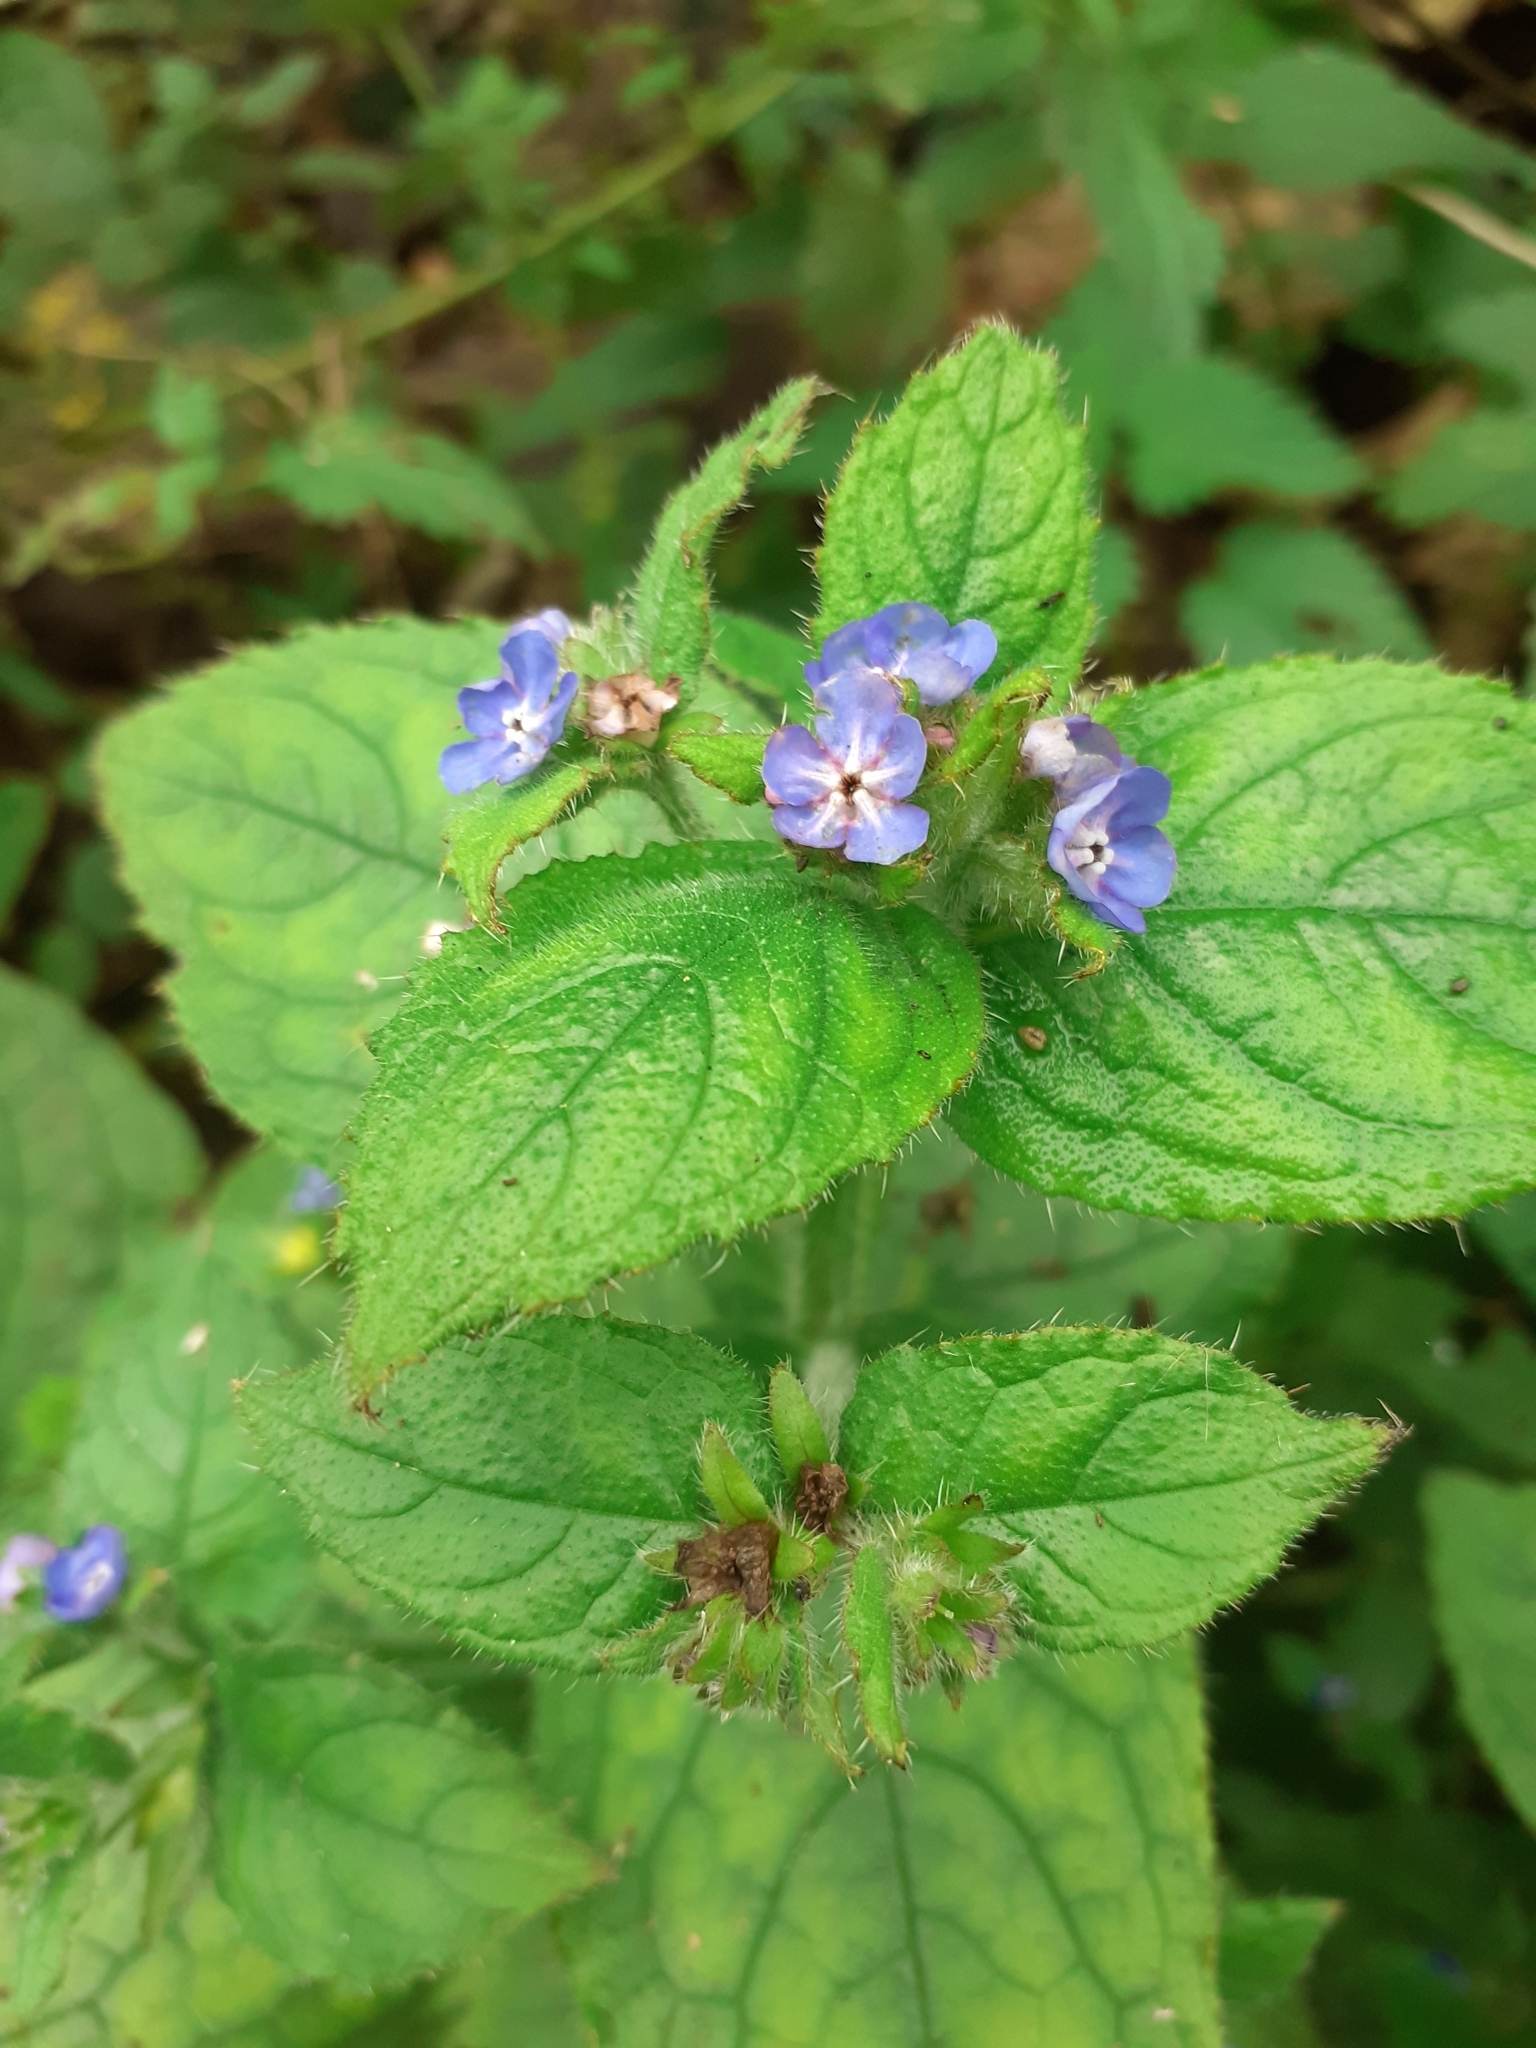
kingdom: Plantae
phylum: Tracheophyta
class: Magnoliopsida
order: Boraginales
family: Boraginaceae
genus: Pentaglottis
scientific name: Pentaglottis sempervirens
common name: Green alkanet
